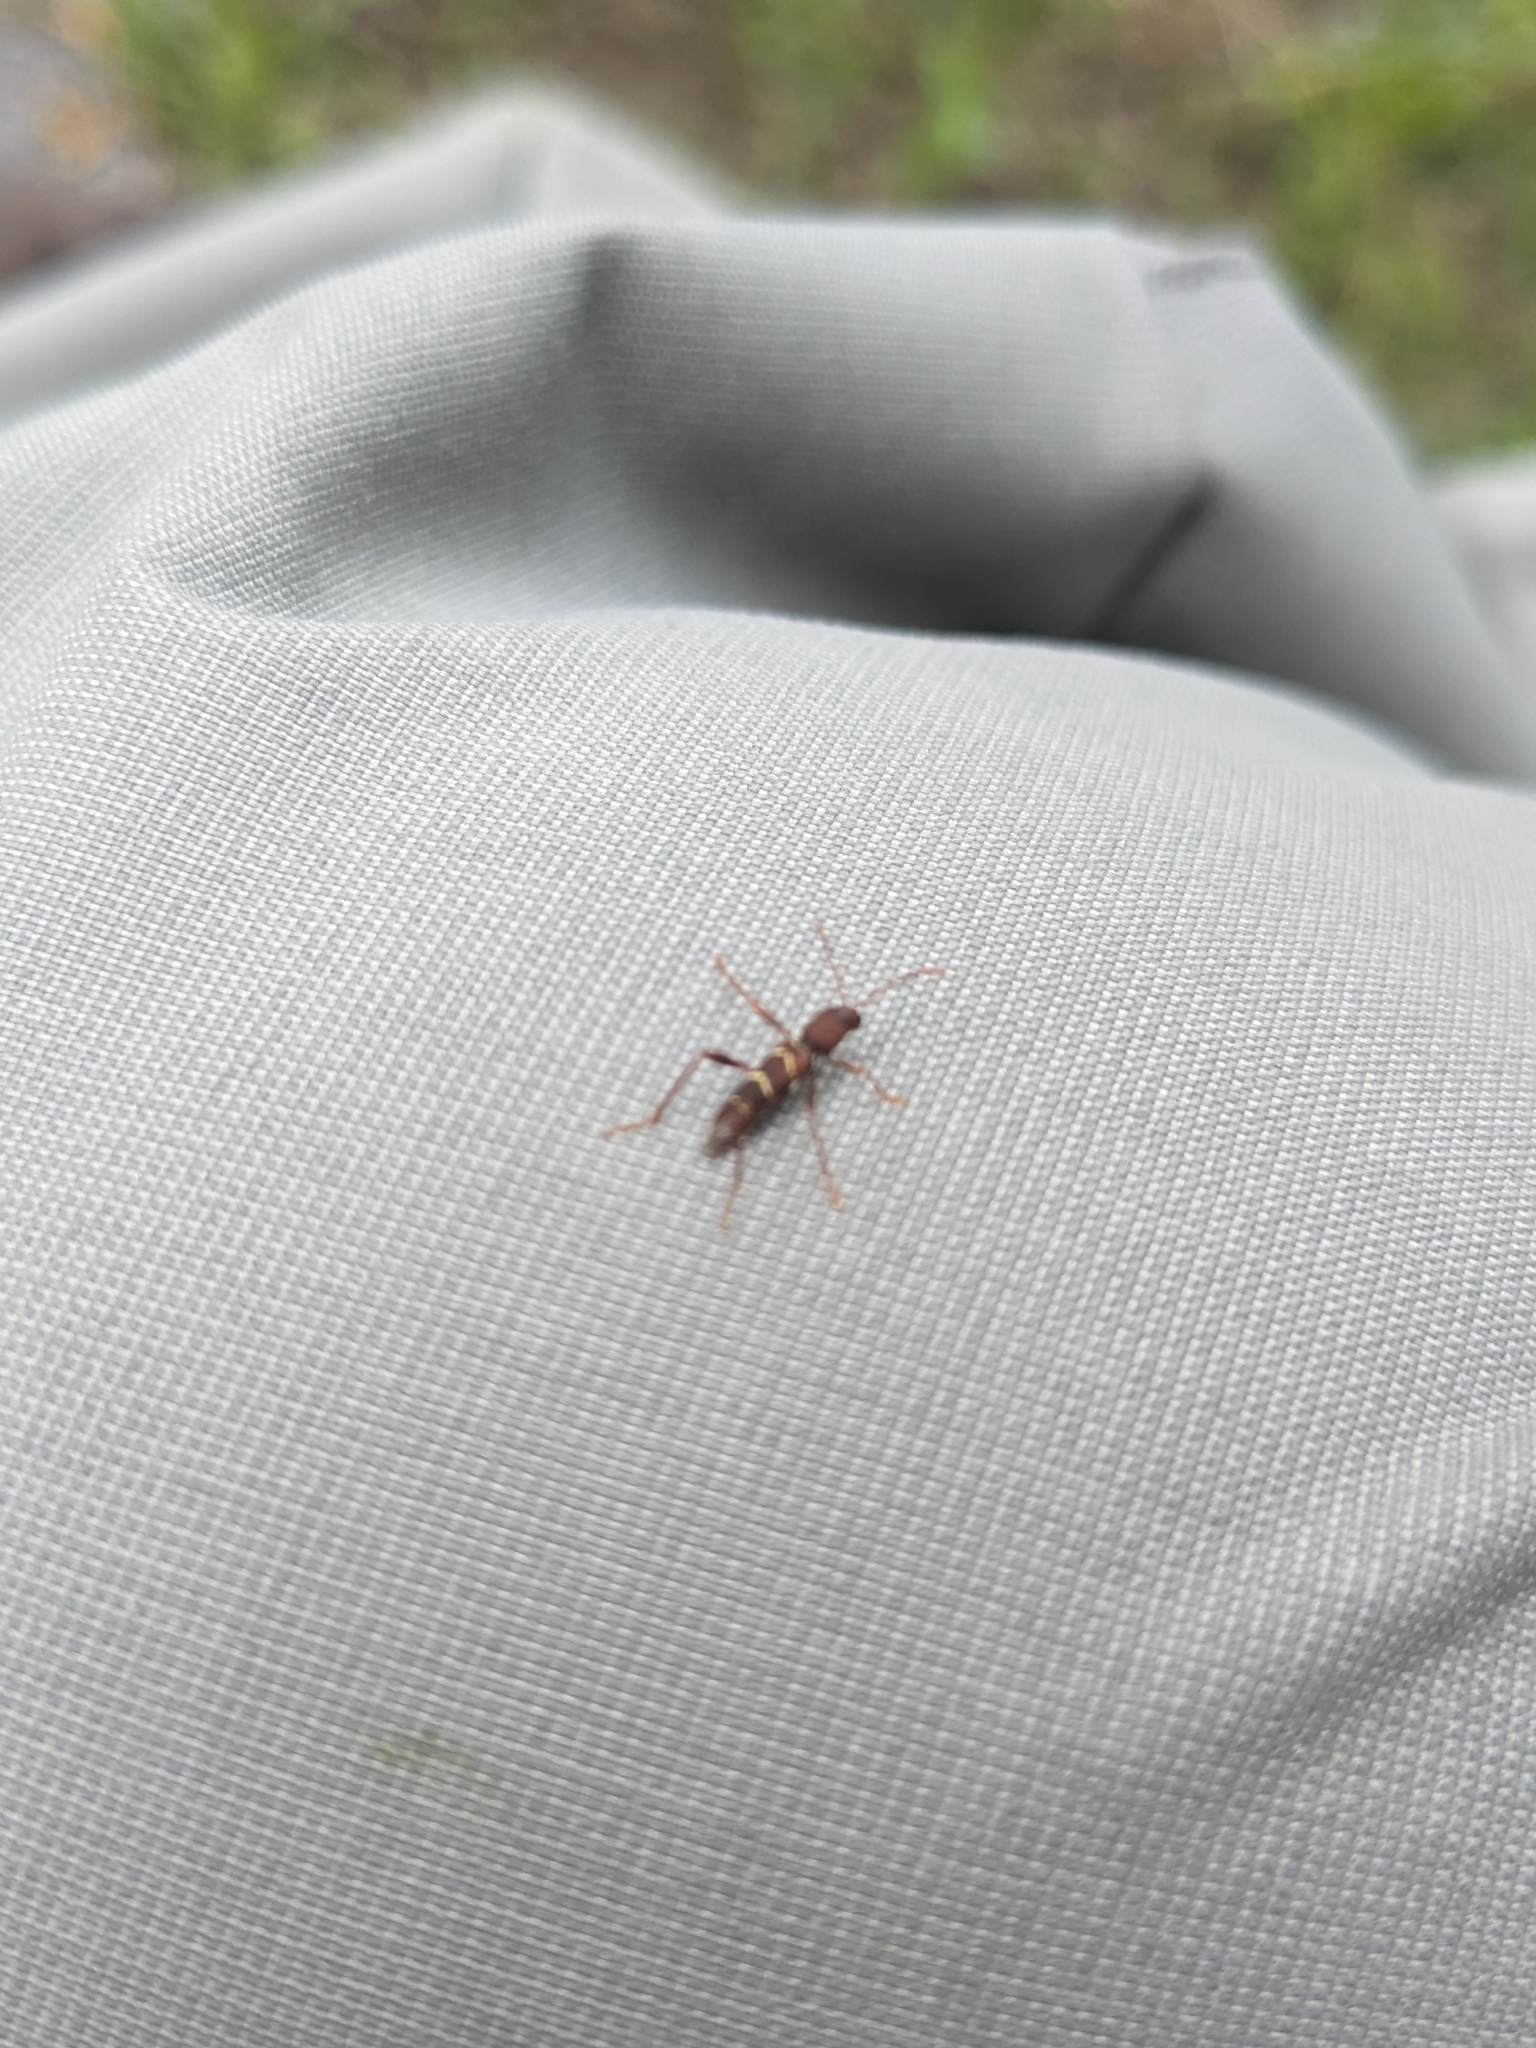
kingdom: Animalia
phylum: Arthropoda
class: Insecta
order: Coleoptera
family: Cerambycidae
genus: Neoclytus
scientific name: Neoclytus acuminatus
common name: Read-headed ash borer
